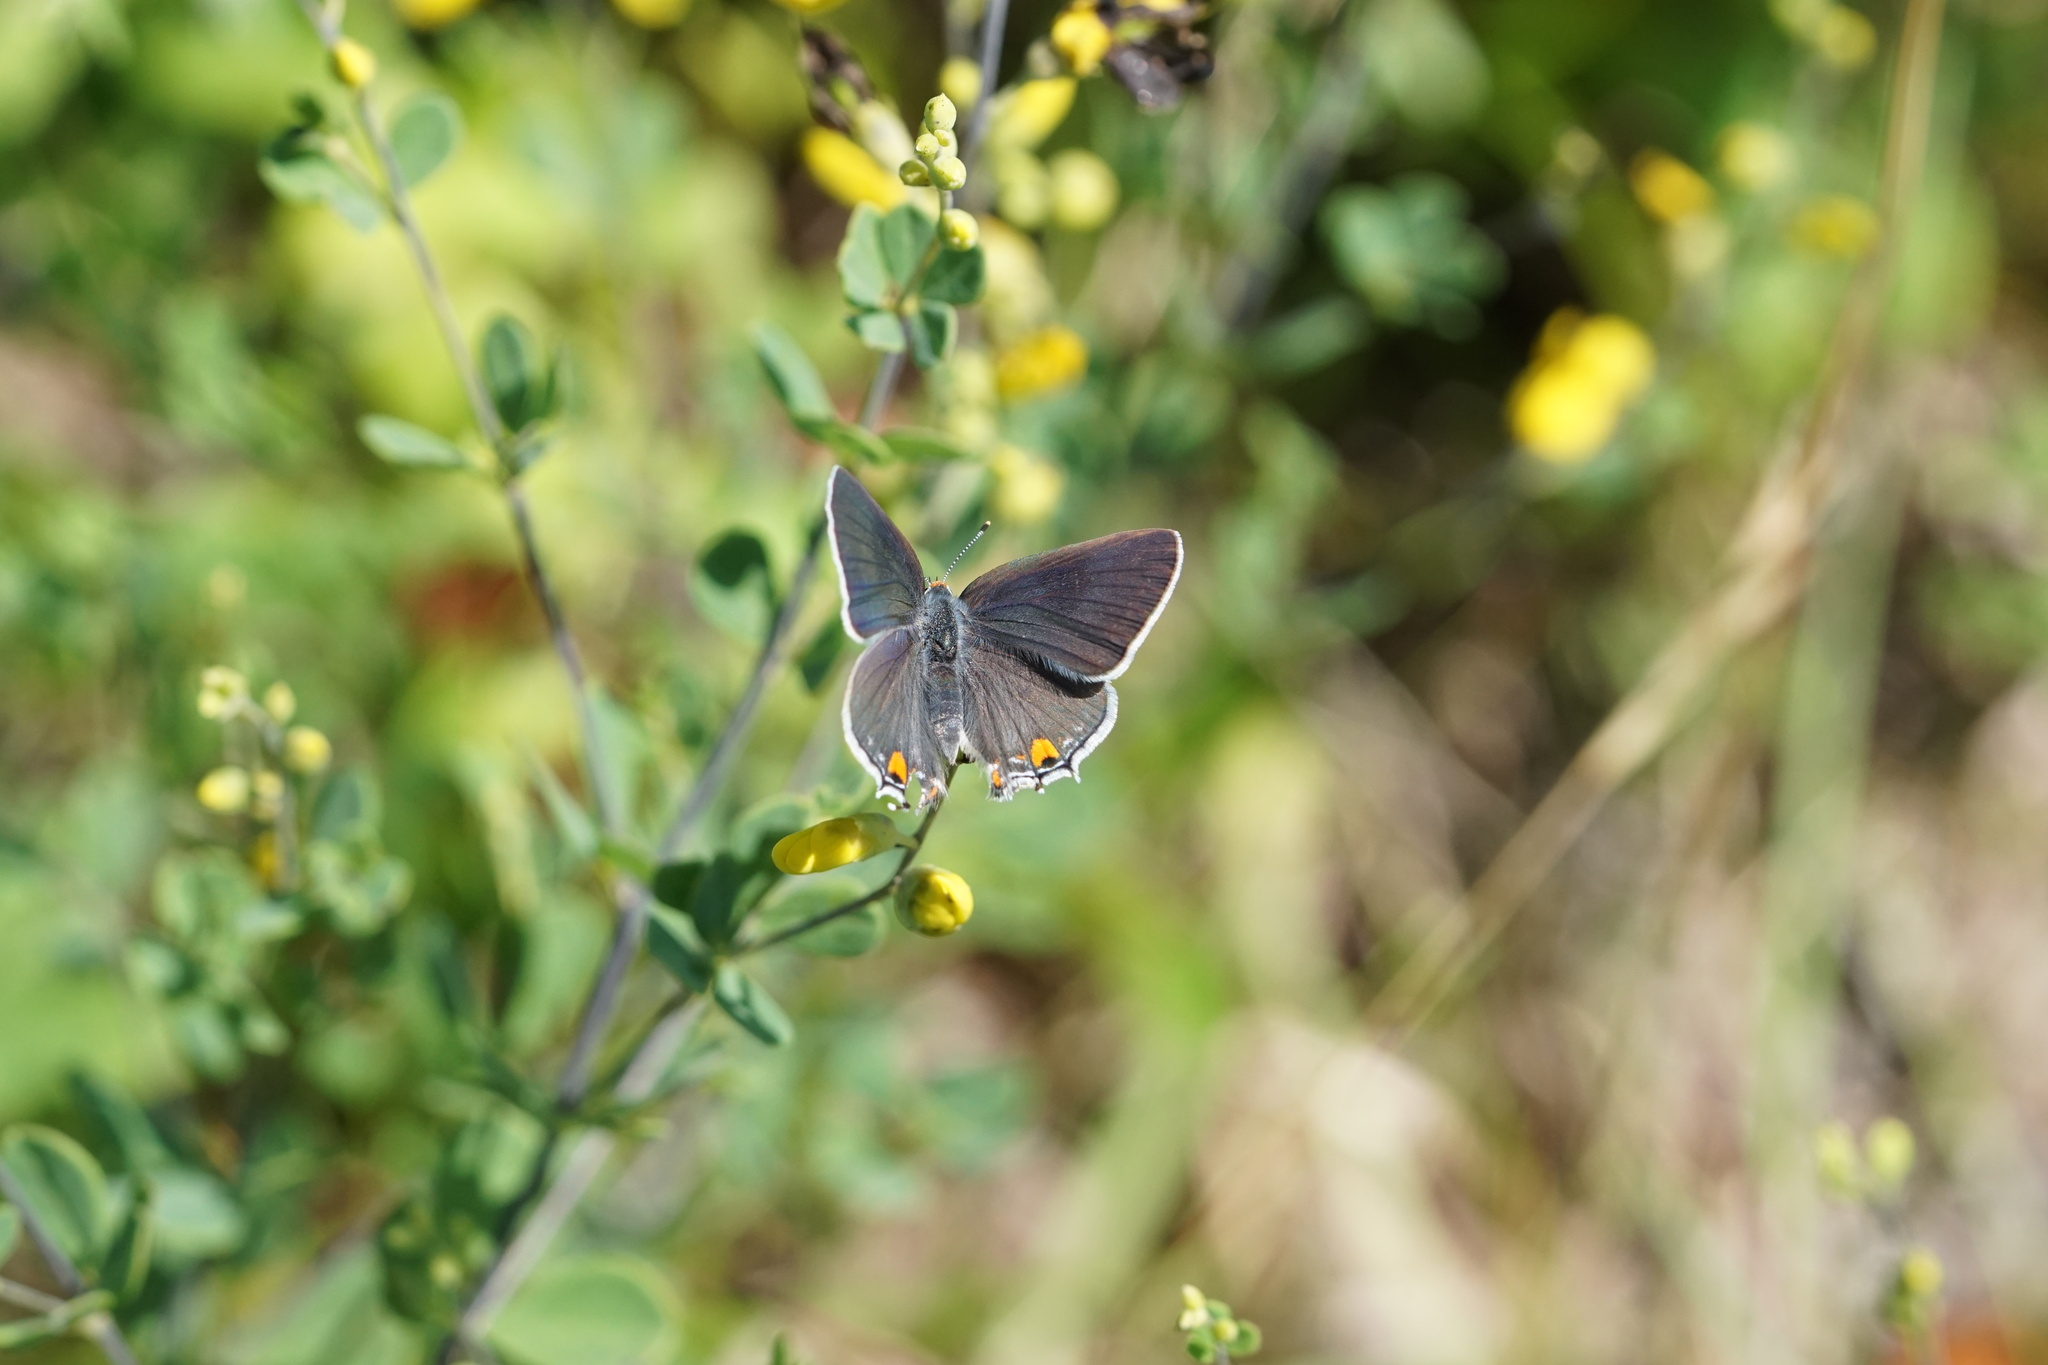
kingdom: Animalia
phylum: Arthropoda
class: Insecta
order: Lepidoptera
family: Lycaenidae
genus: Strymon
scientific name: Strymon melinus
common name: Gray hairstreak
